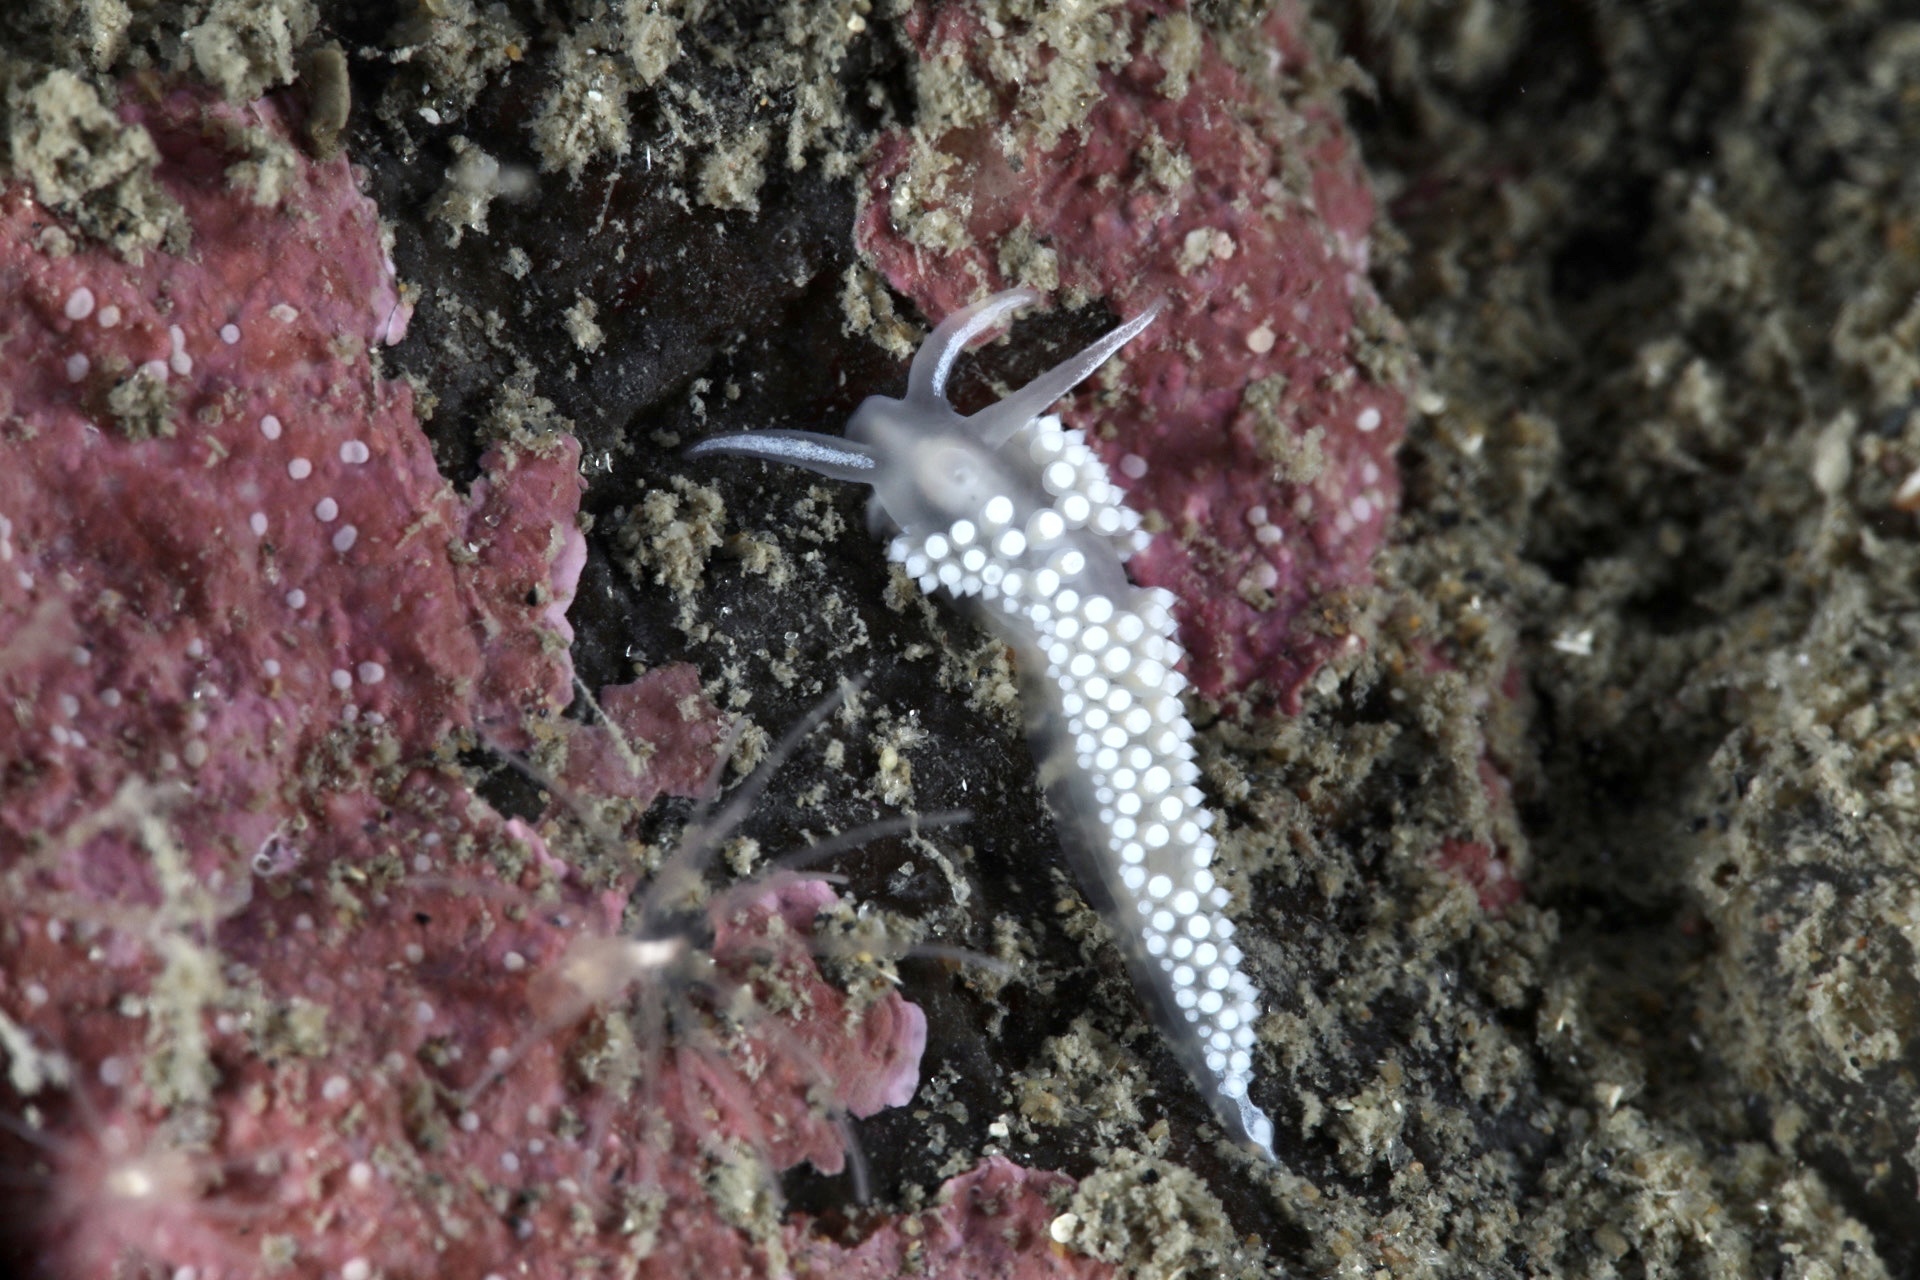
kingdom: Animalia
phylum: Mollusca
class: Gastropoda
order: Nudibranchia
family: Coryphellidae
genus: Coryphella
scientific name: Coryphella verrucosa
